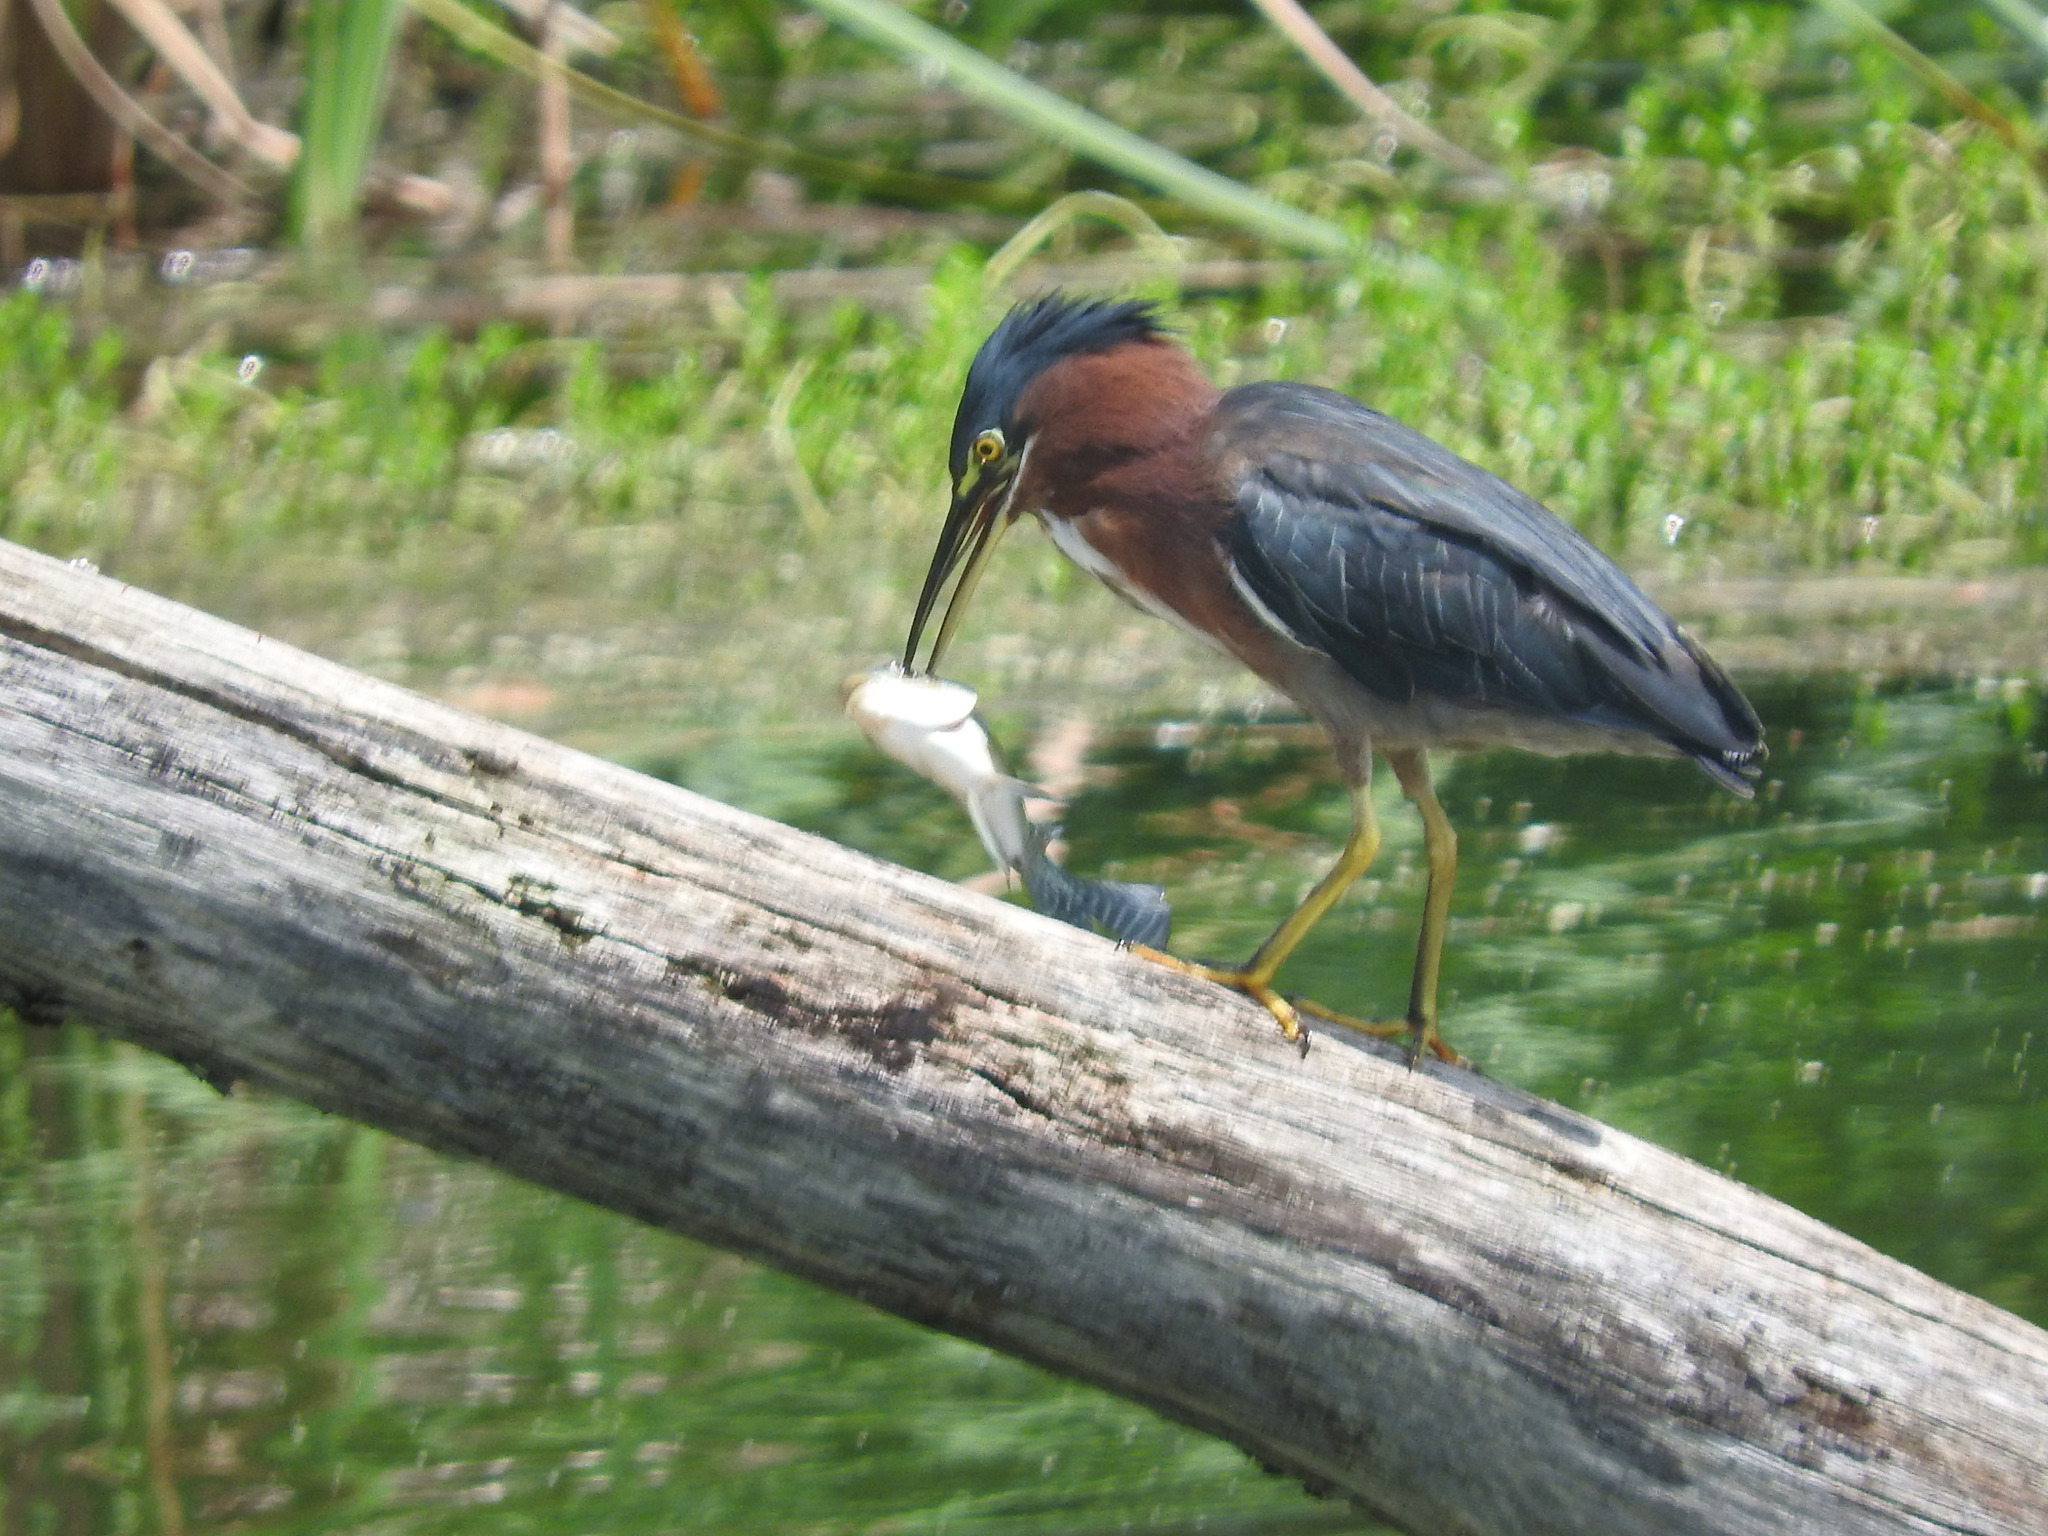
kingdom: Animalia
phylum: Chordata
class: Aves
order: Pelecaniformes
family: Ardeidae
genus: Butorides
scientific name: Butorides virescens
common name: Green heron
